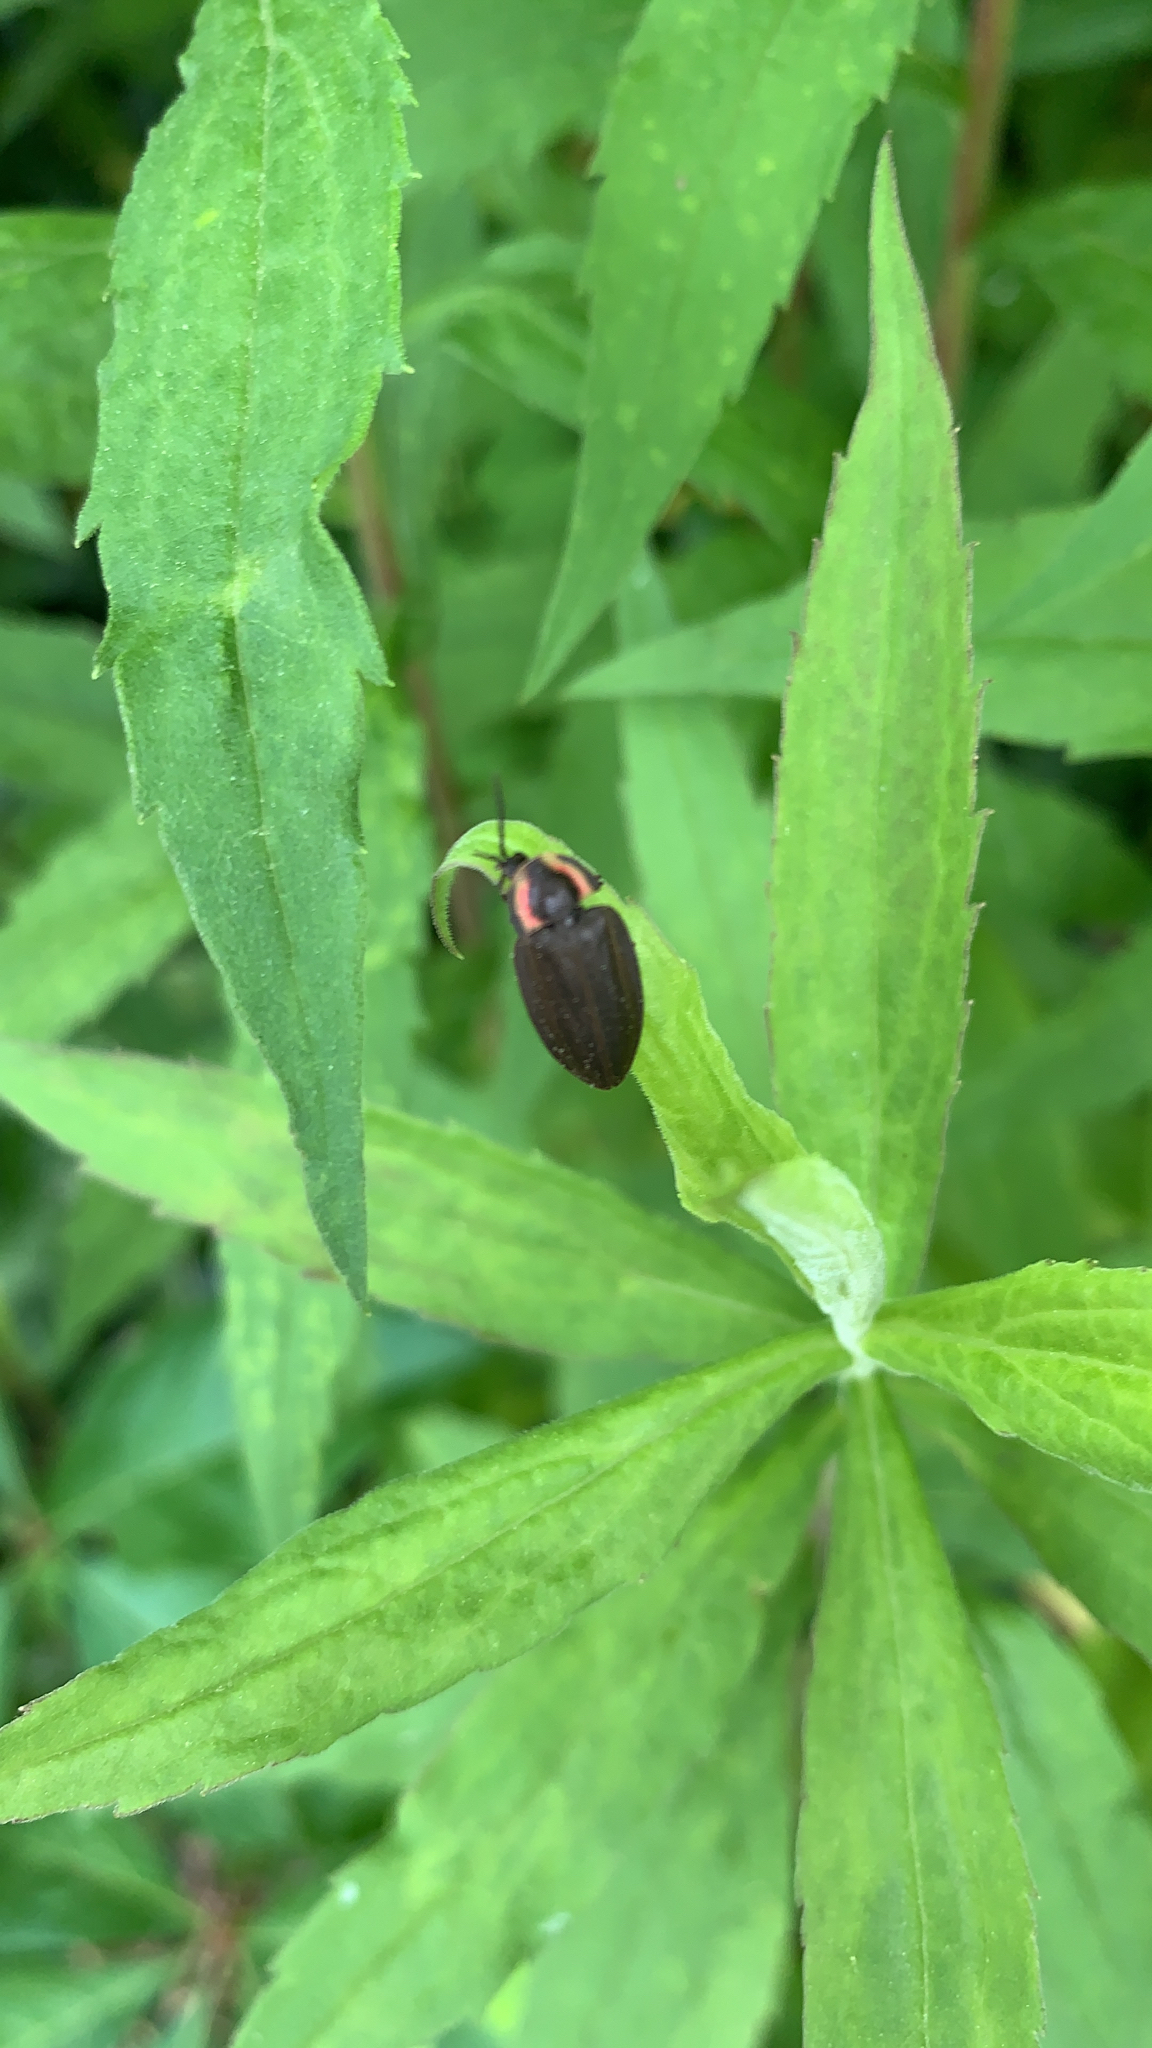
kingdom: Animalia
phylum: Arthropoda
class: Insecta
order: Coleoptera
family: Lampyridae
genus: Photinus
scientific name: Photinus corrusca
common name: Winter firefly
